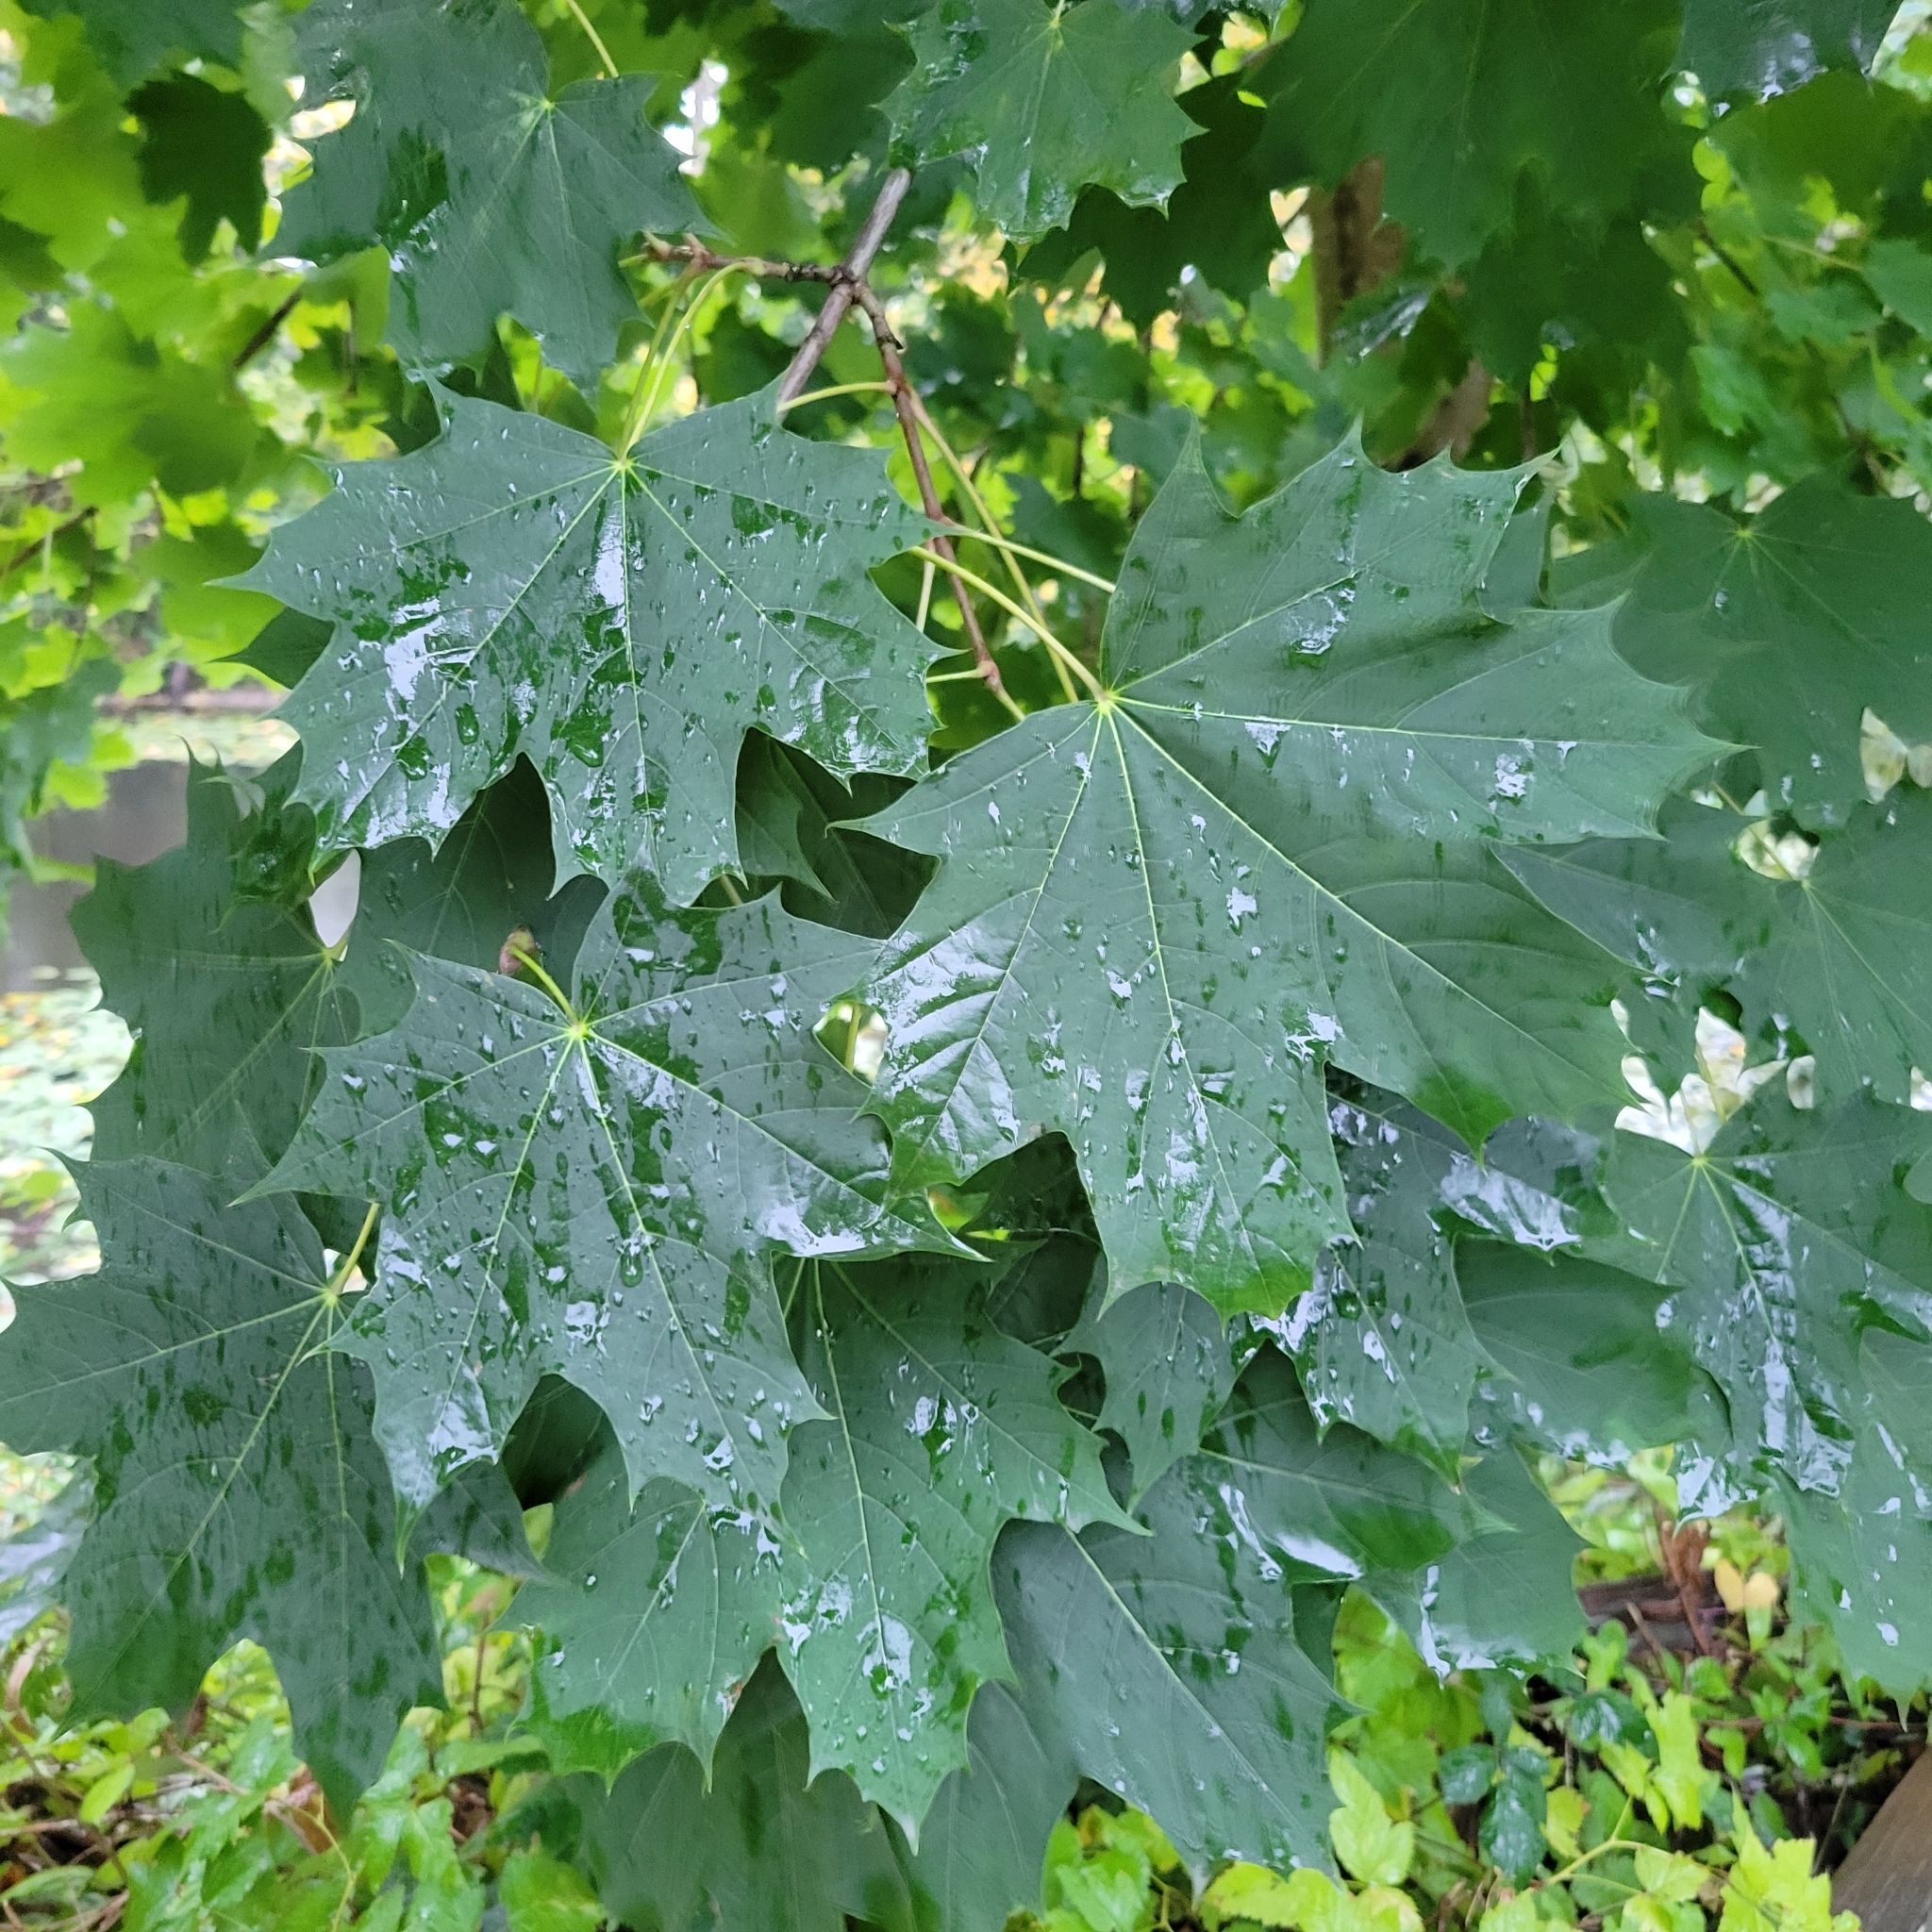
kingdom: Plantae
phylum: Tracheophyta
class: Magnoliopsida
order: Sapindales
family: Sapindaceae
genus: Acer
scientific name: Acer platanoides
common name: Norway maple
